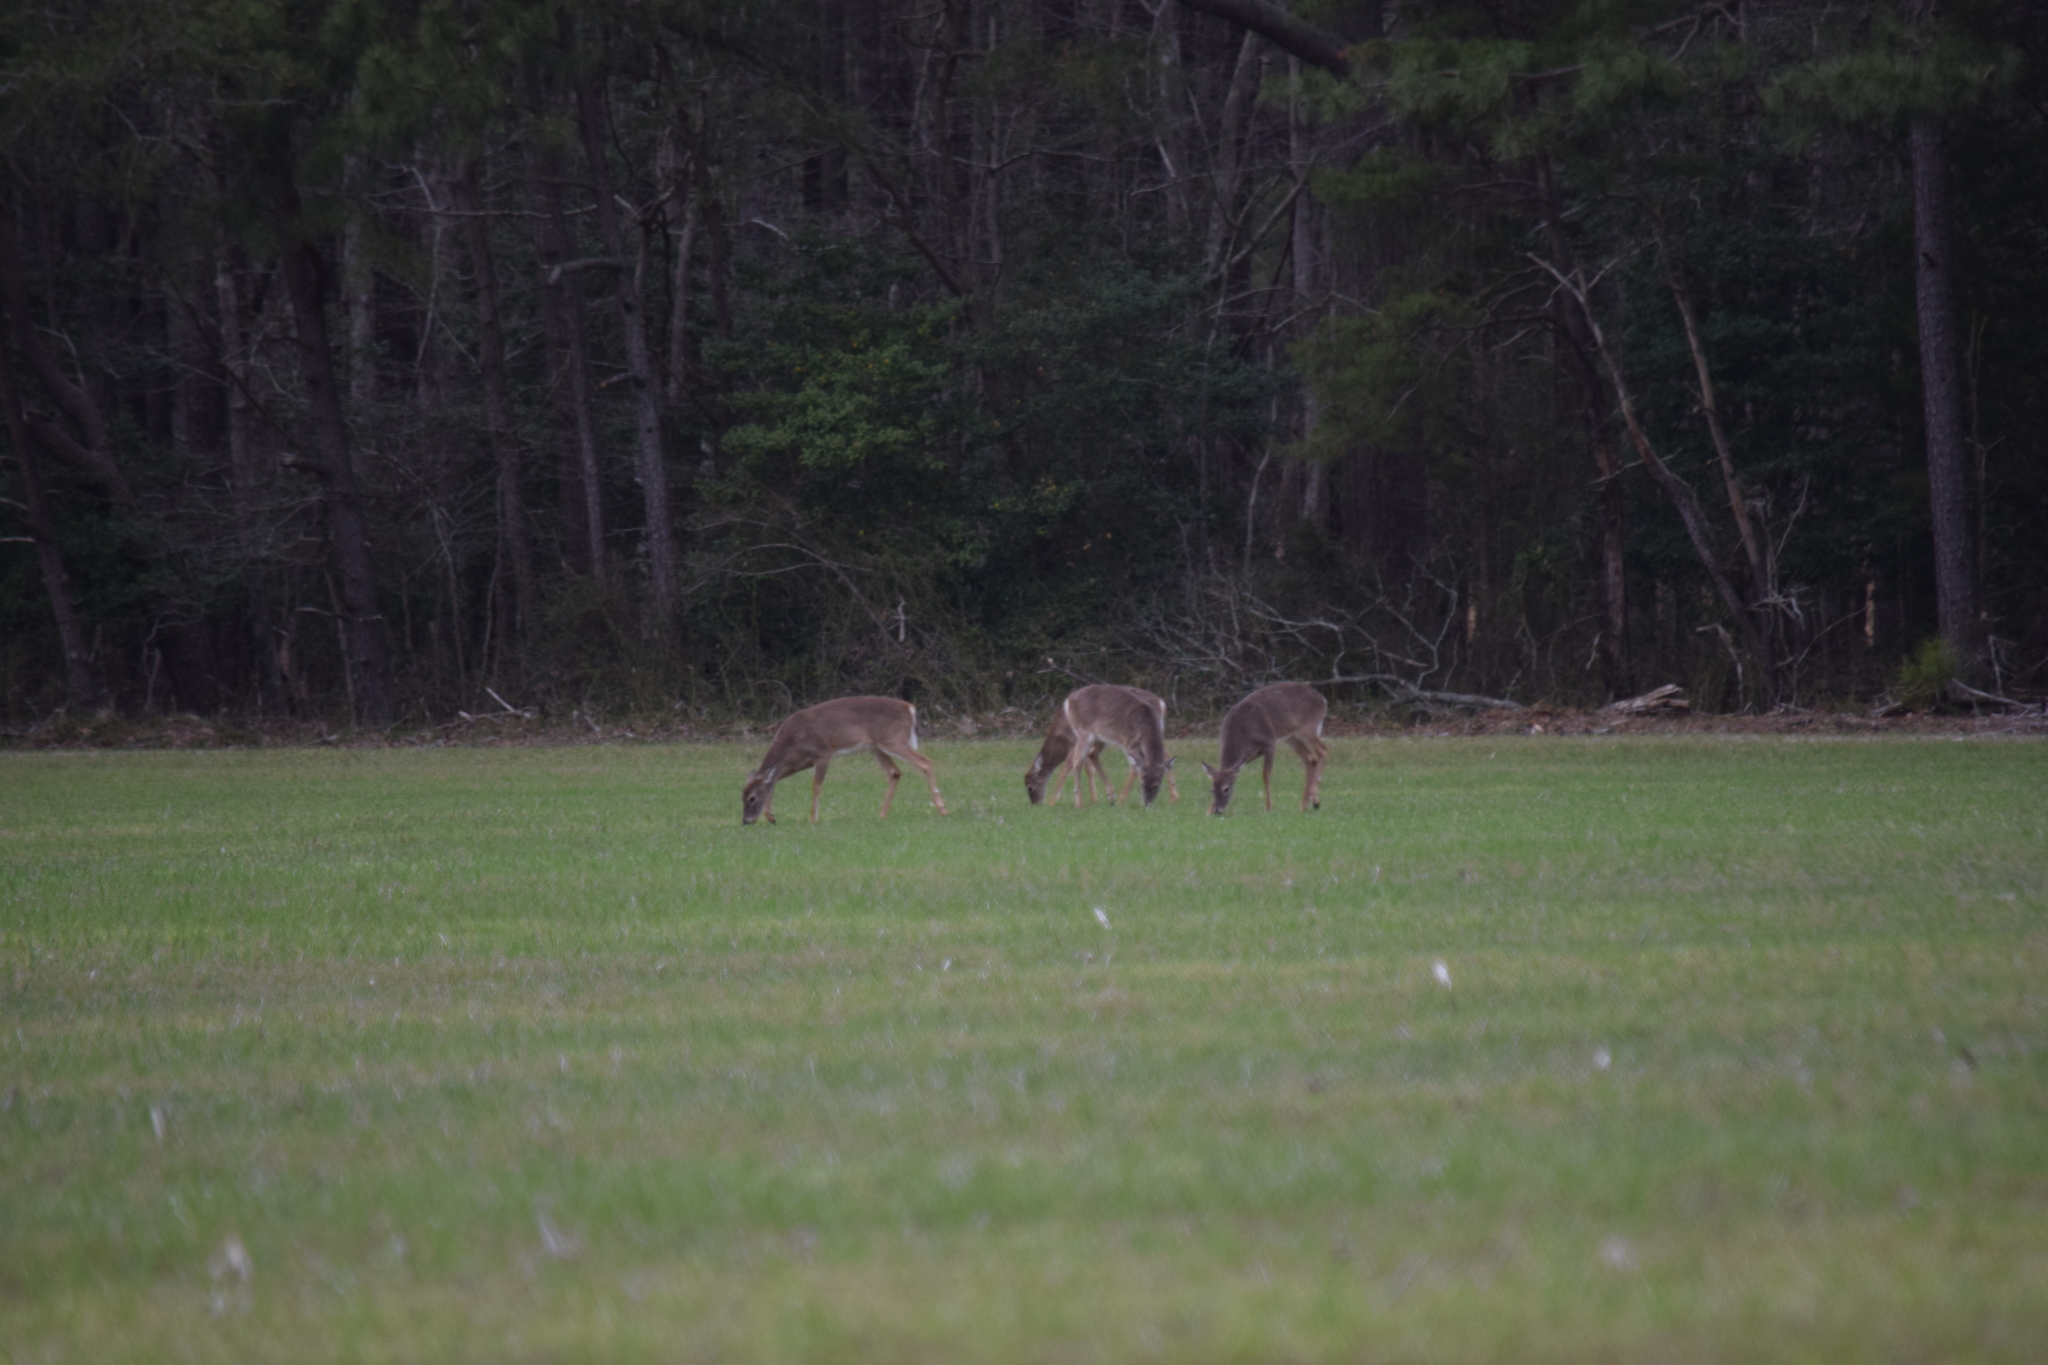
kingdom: Animalia
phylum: Chordata
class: Mammalia
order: Artiodactyla
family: Cervidae
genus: Odocoileus
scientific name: Odocoileus virginianus
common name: White-tailed deer
